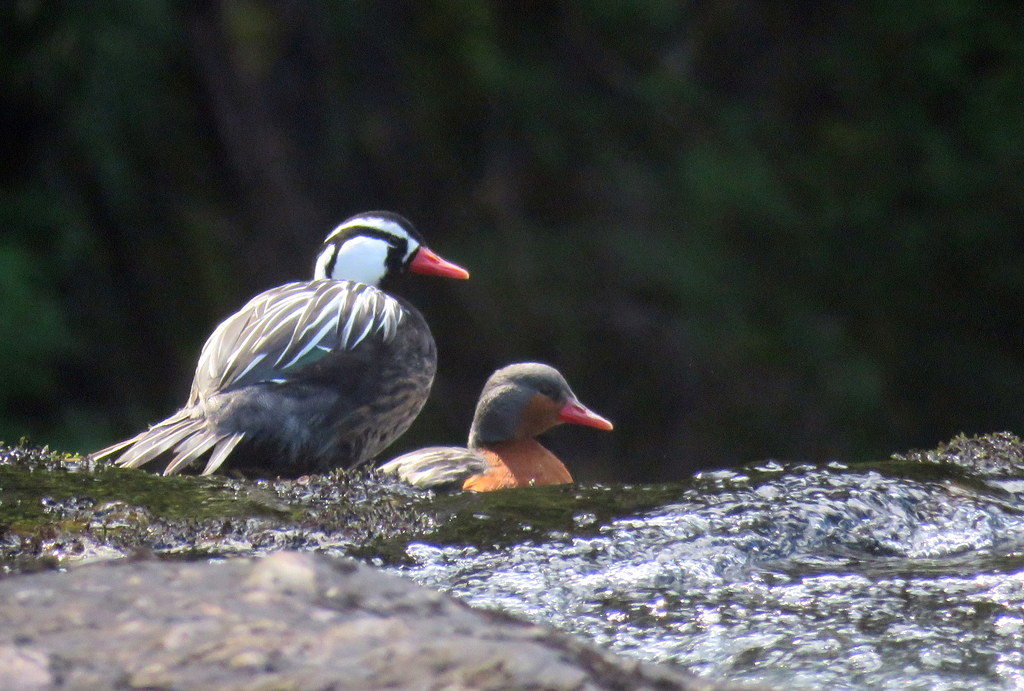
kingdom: Animalia
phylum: Chordata
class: Aves
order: Anseriformes
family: Anatidae
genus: Merganetta
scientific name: Merganetta armata
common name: Torrent duck
